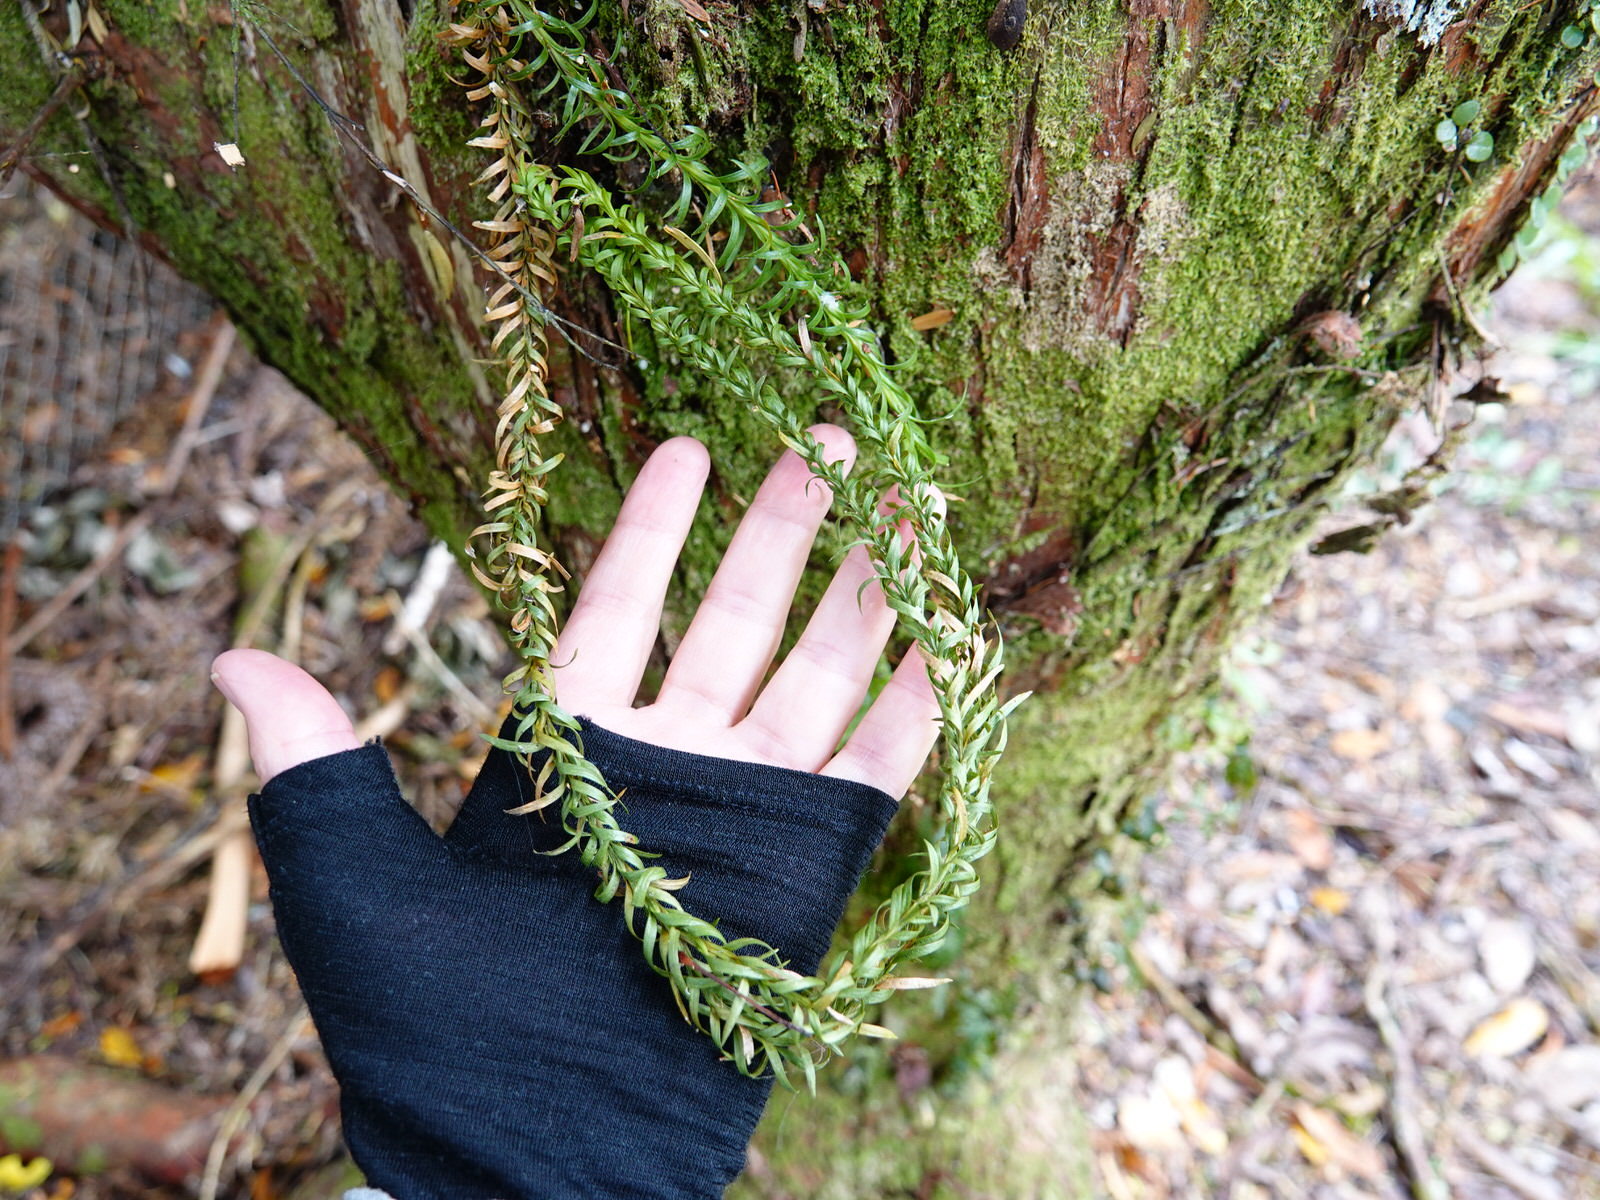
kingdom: Plantae
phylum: Tracheophyta
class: Lycopodiopsida
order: Lycopodiales
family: Lycopodiaceae
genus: Phlegmariurus
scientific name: Phlegmariurus varius
